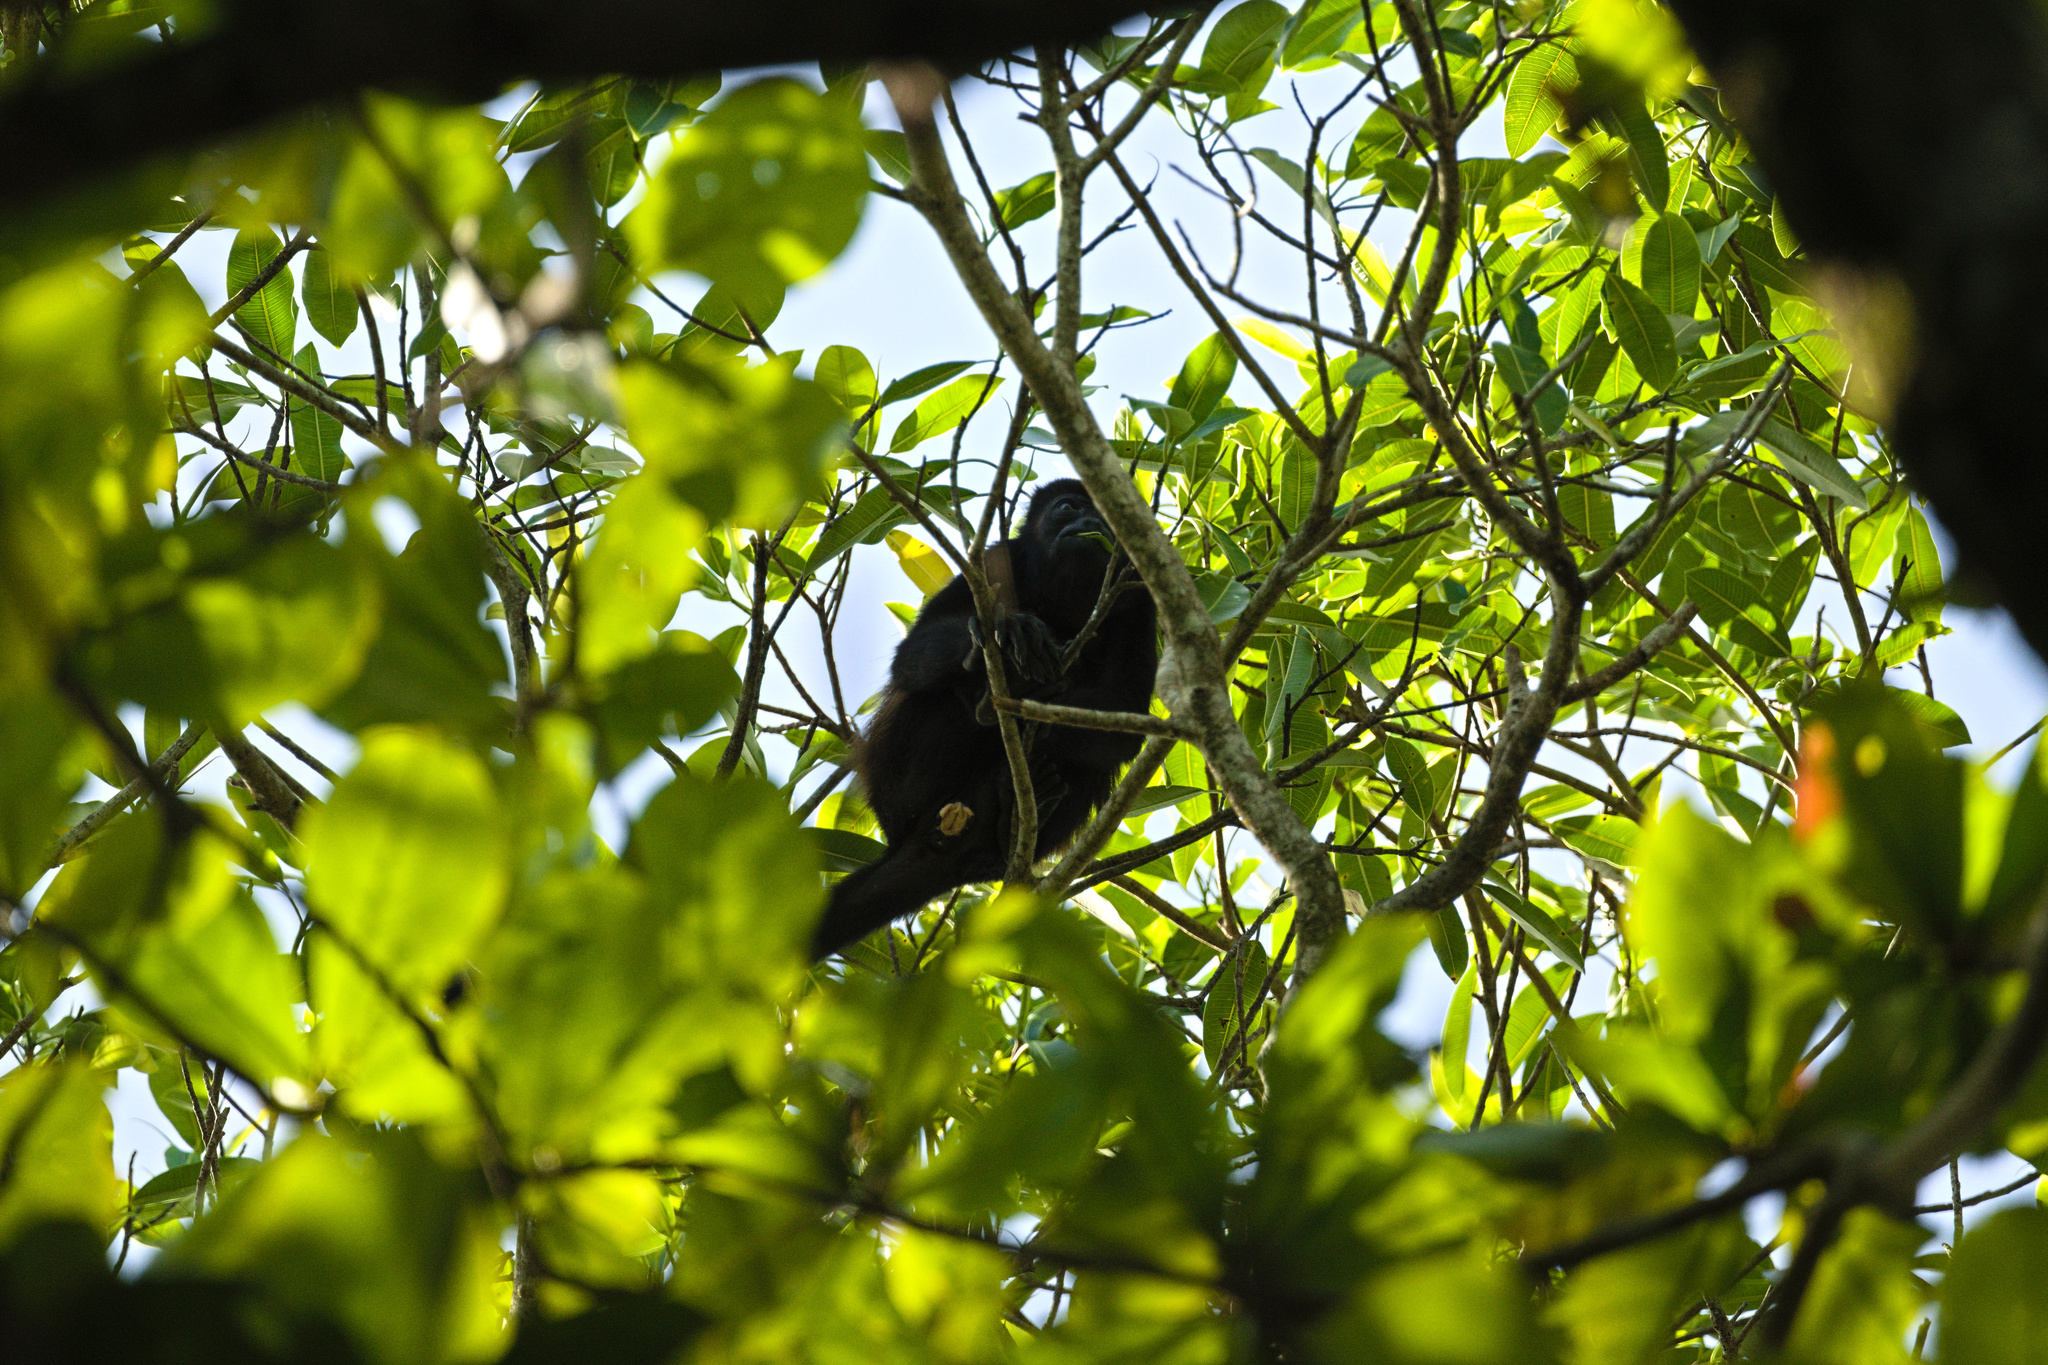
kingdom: Animalia
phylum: Chordata
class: Mammalia
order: Primates
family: Atelidae
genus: Alouatta
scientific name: Alouatta palliata
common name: Mantled howler
